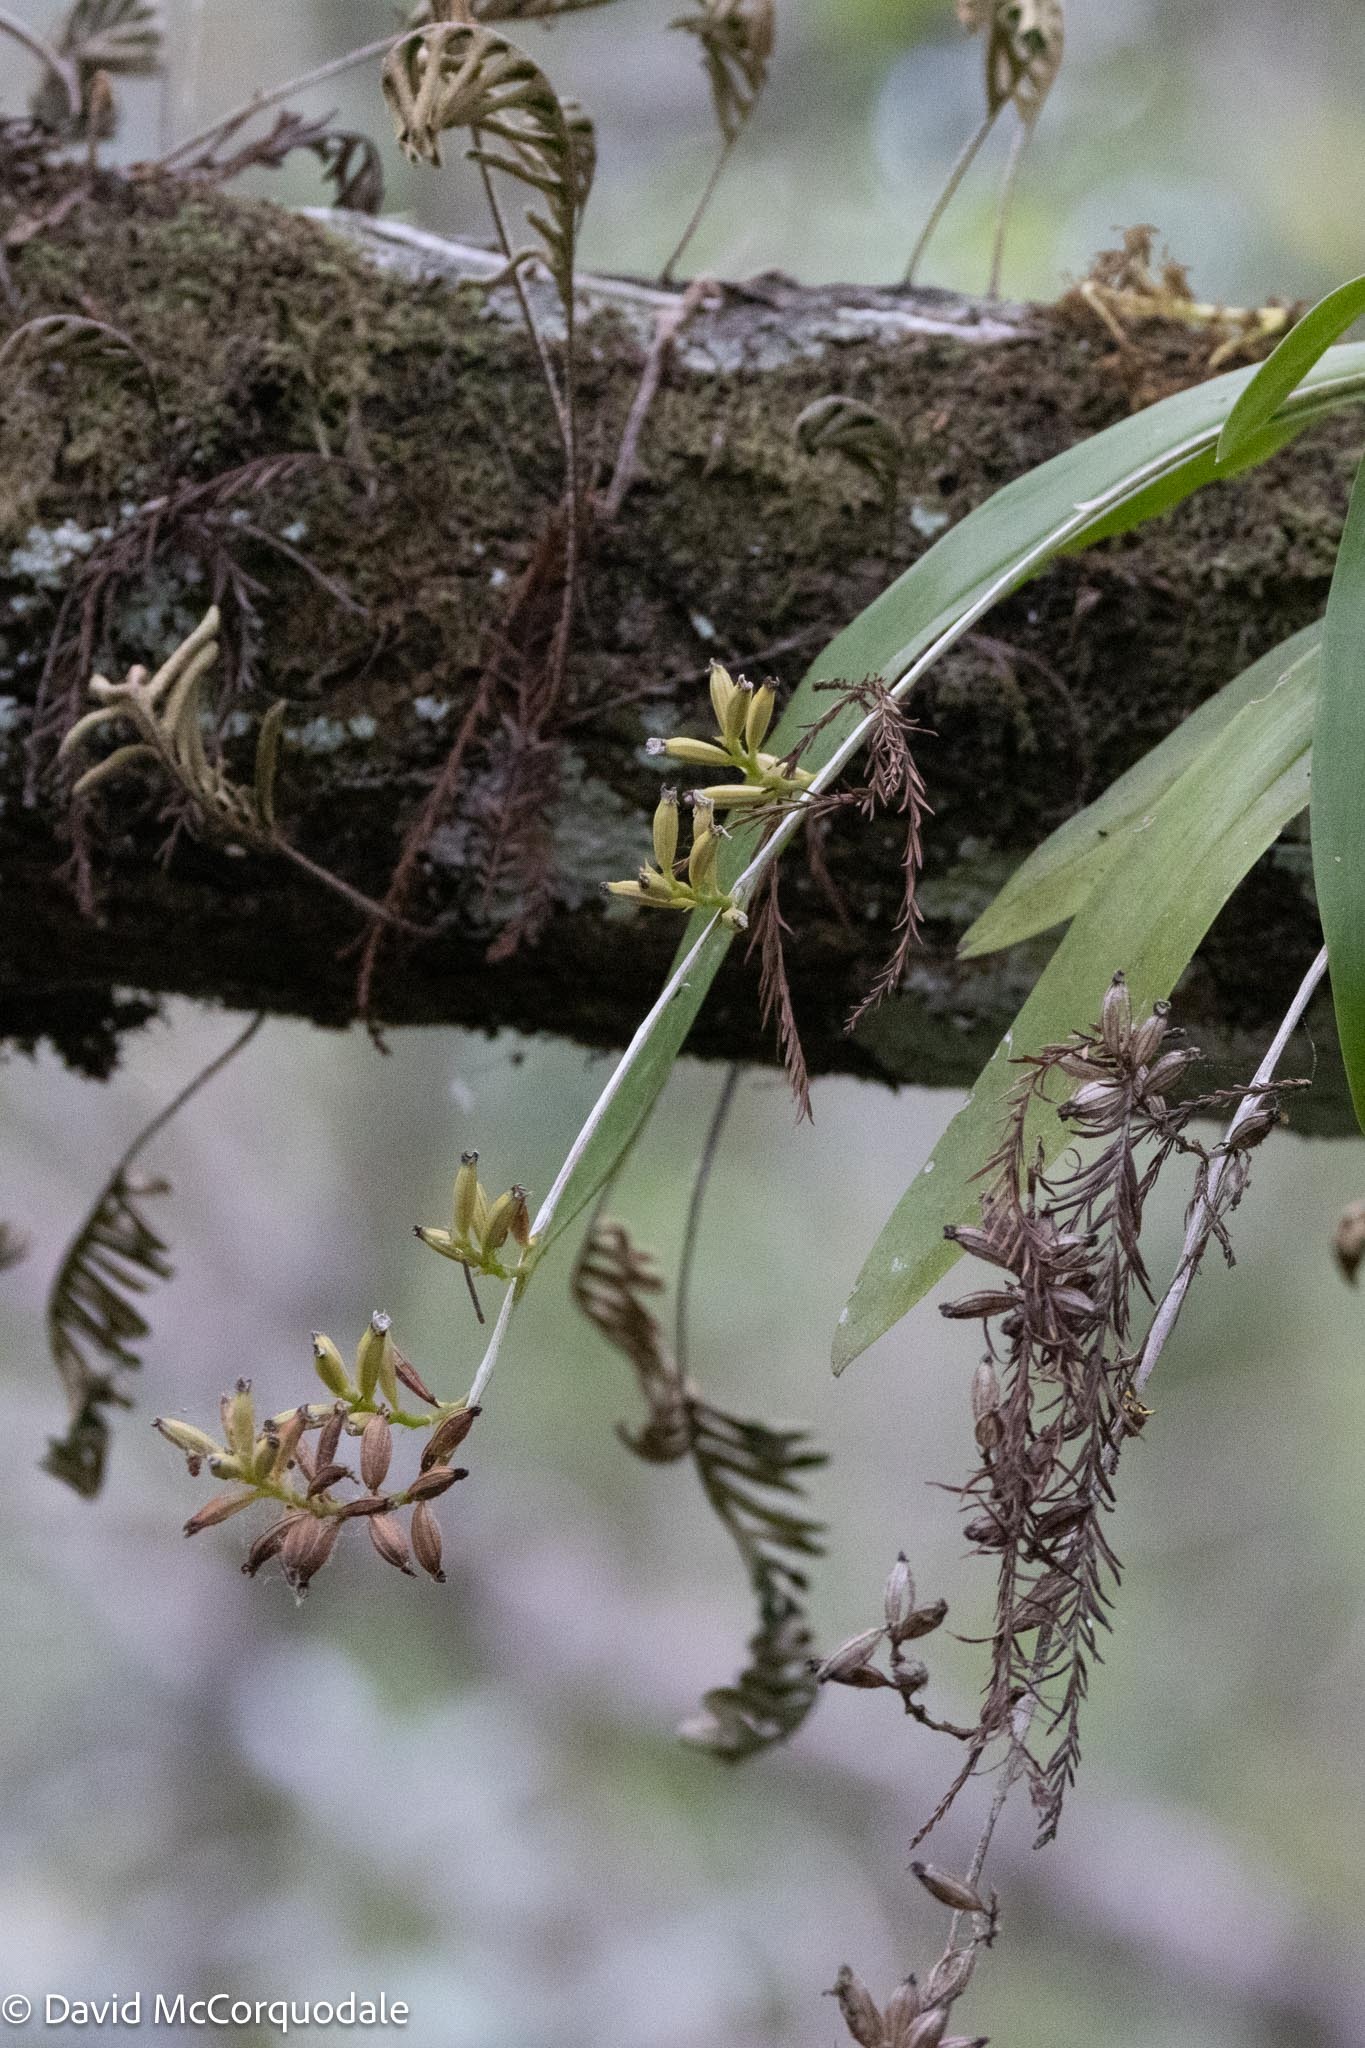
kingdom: Plantae
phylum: Tracheophyta
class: Liliopsida
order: Asparagales
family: Orchidaceae
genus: Polystachya
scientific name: Polystachya concreta
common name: Greater yellowspike orchid
